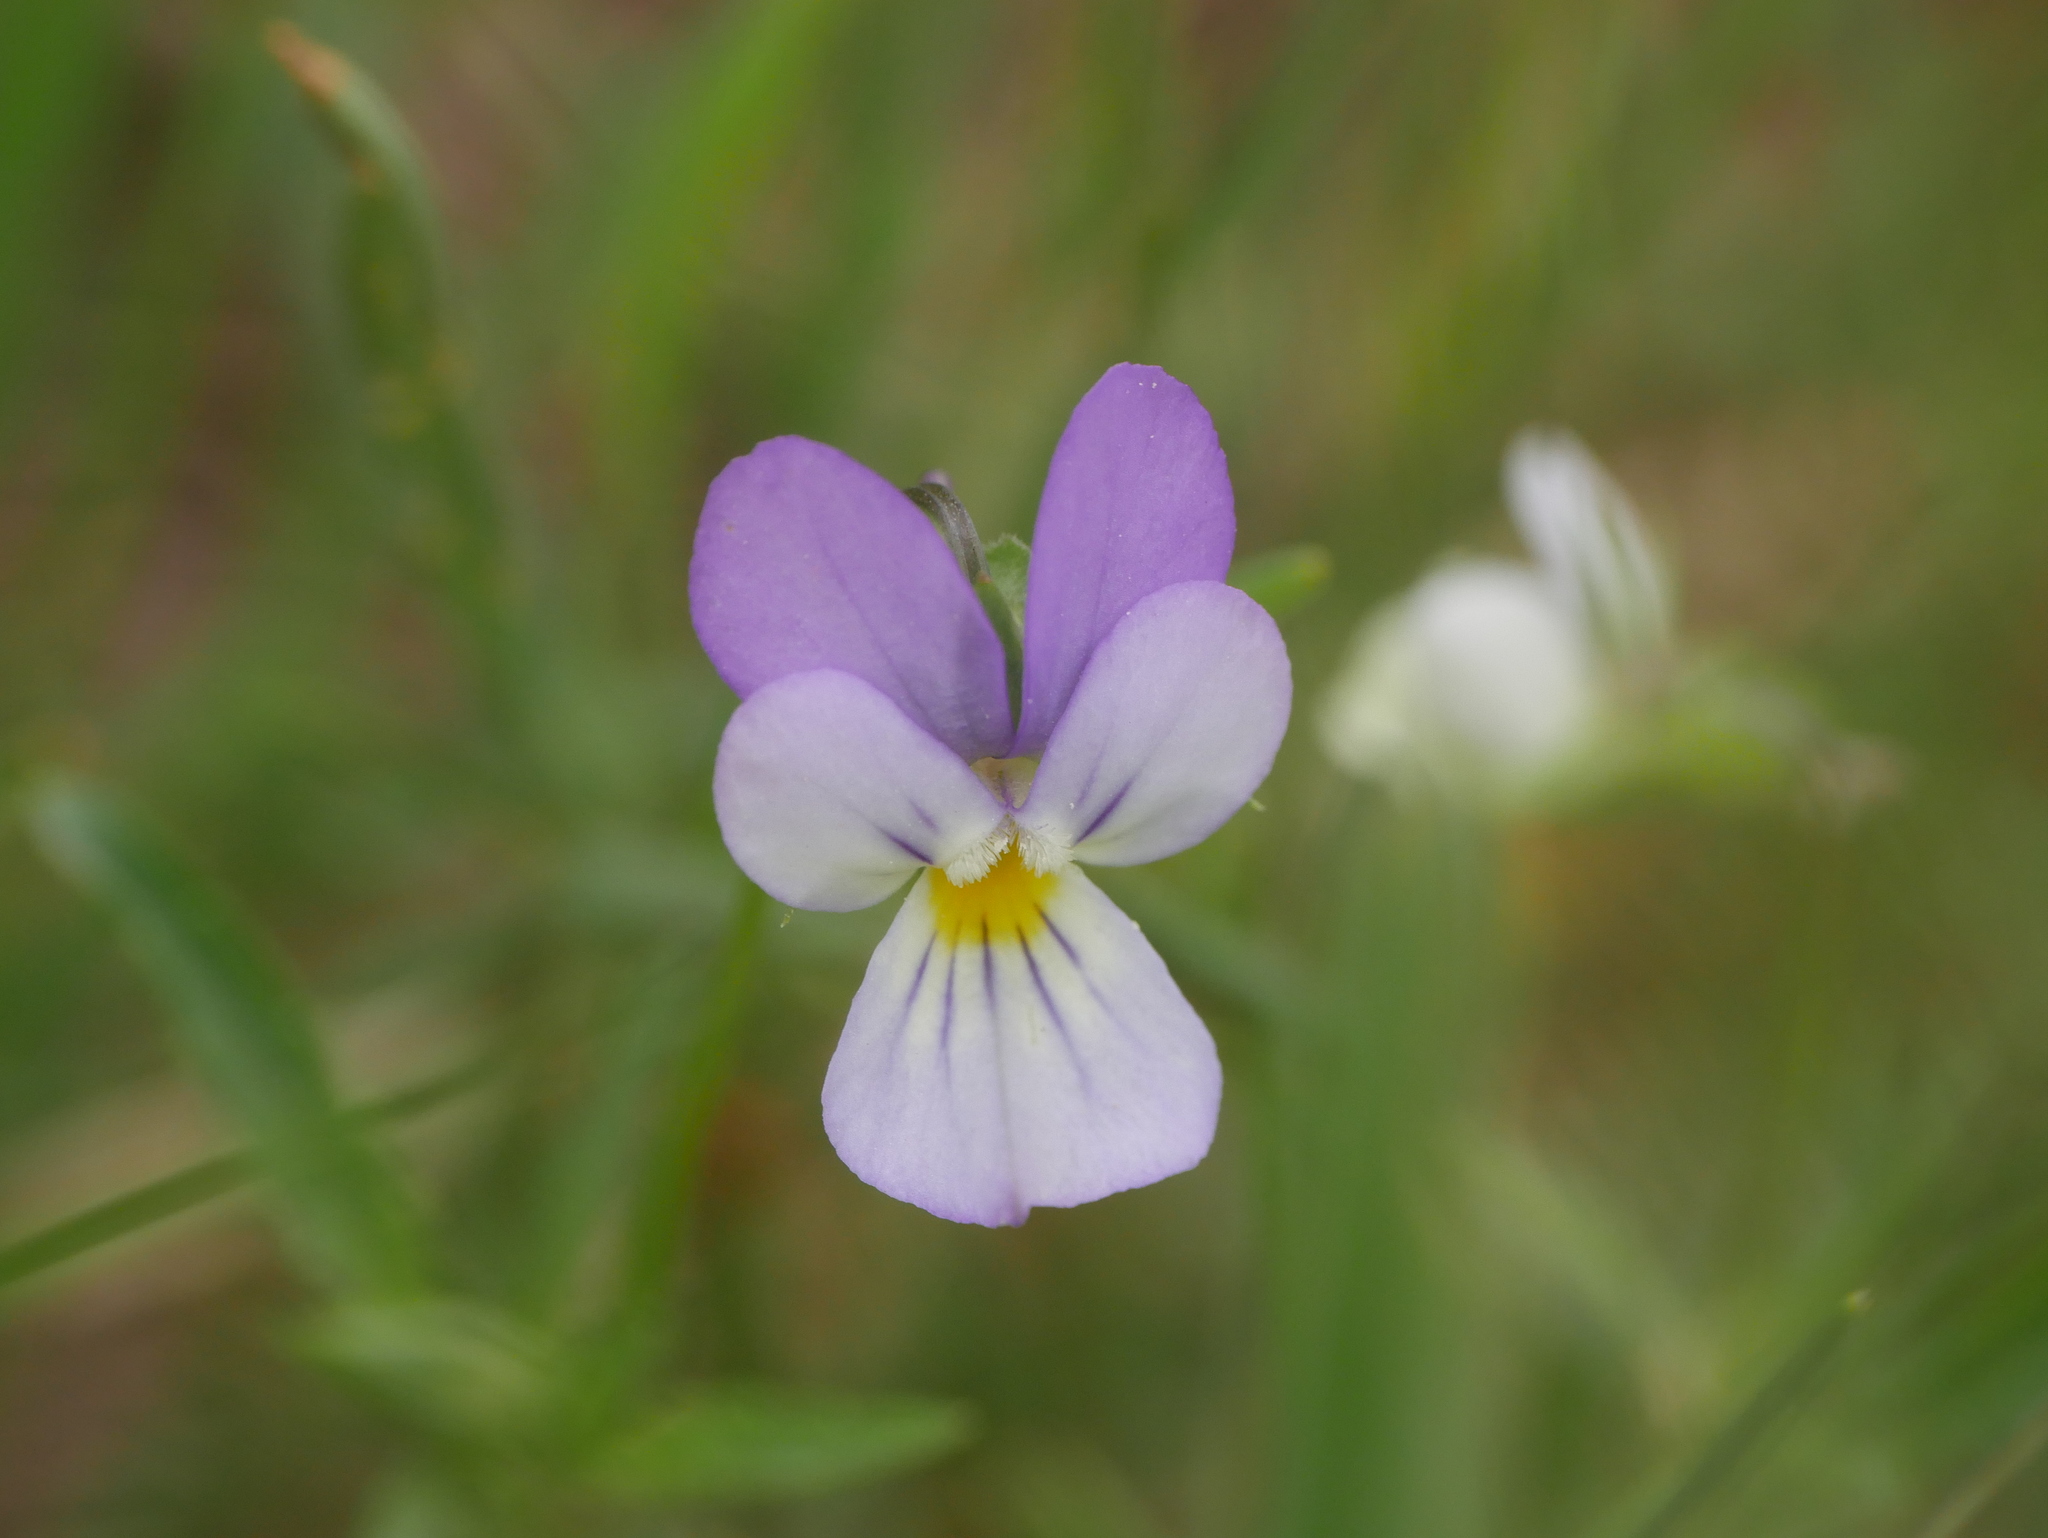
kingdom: Plantae
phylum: Tracheophyta
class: Magnoliopsida
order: Malpighiales
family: Violaceae
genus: Viola
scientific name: Viola tricolor
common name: Pansy
